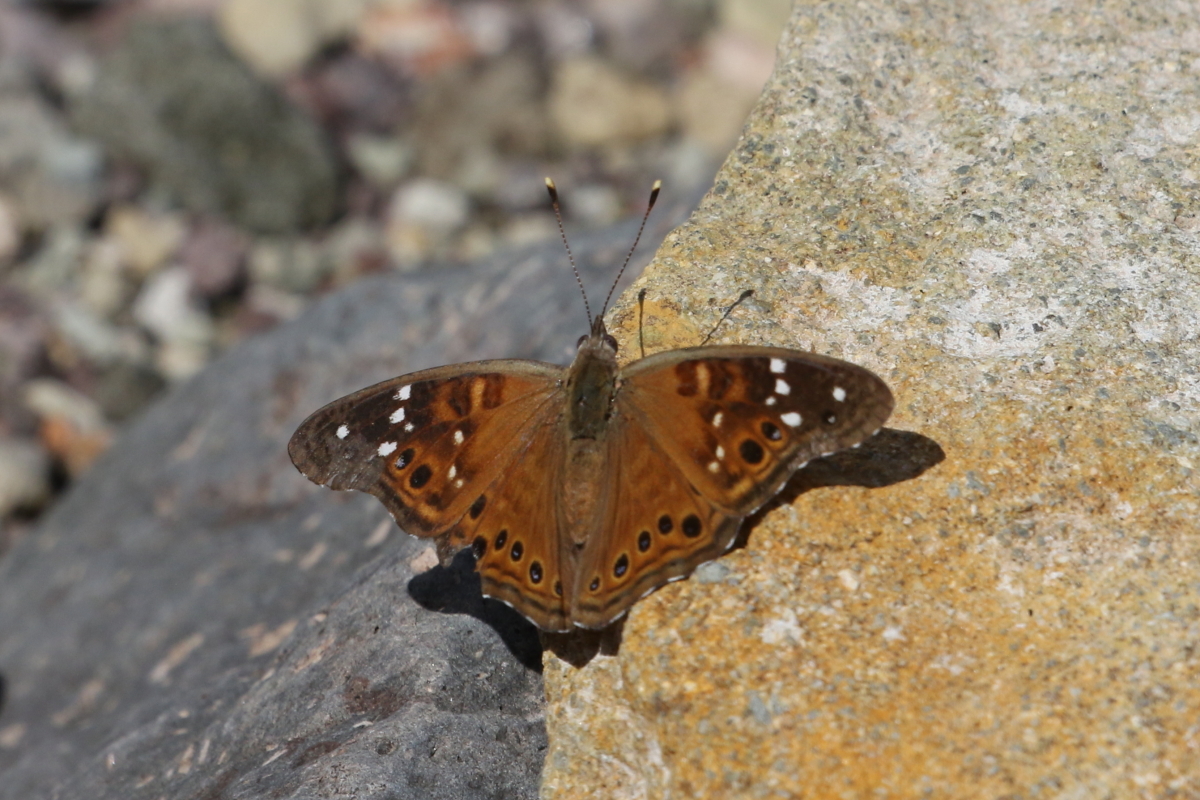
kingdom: Animalia
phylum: Arthropoda
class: Insecta
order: Lepidoptera
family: Nymphalidae
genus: Asterocampa
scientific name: Asterocampa leilia
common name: Empress leilia
